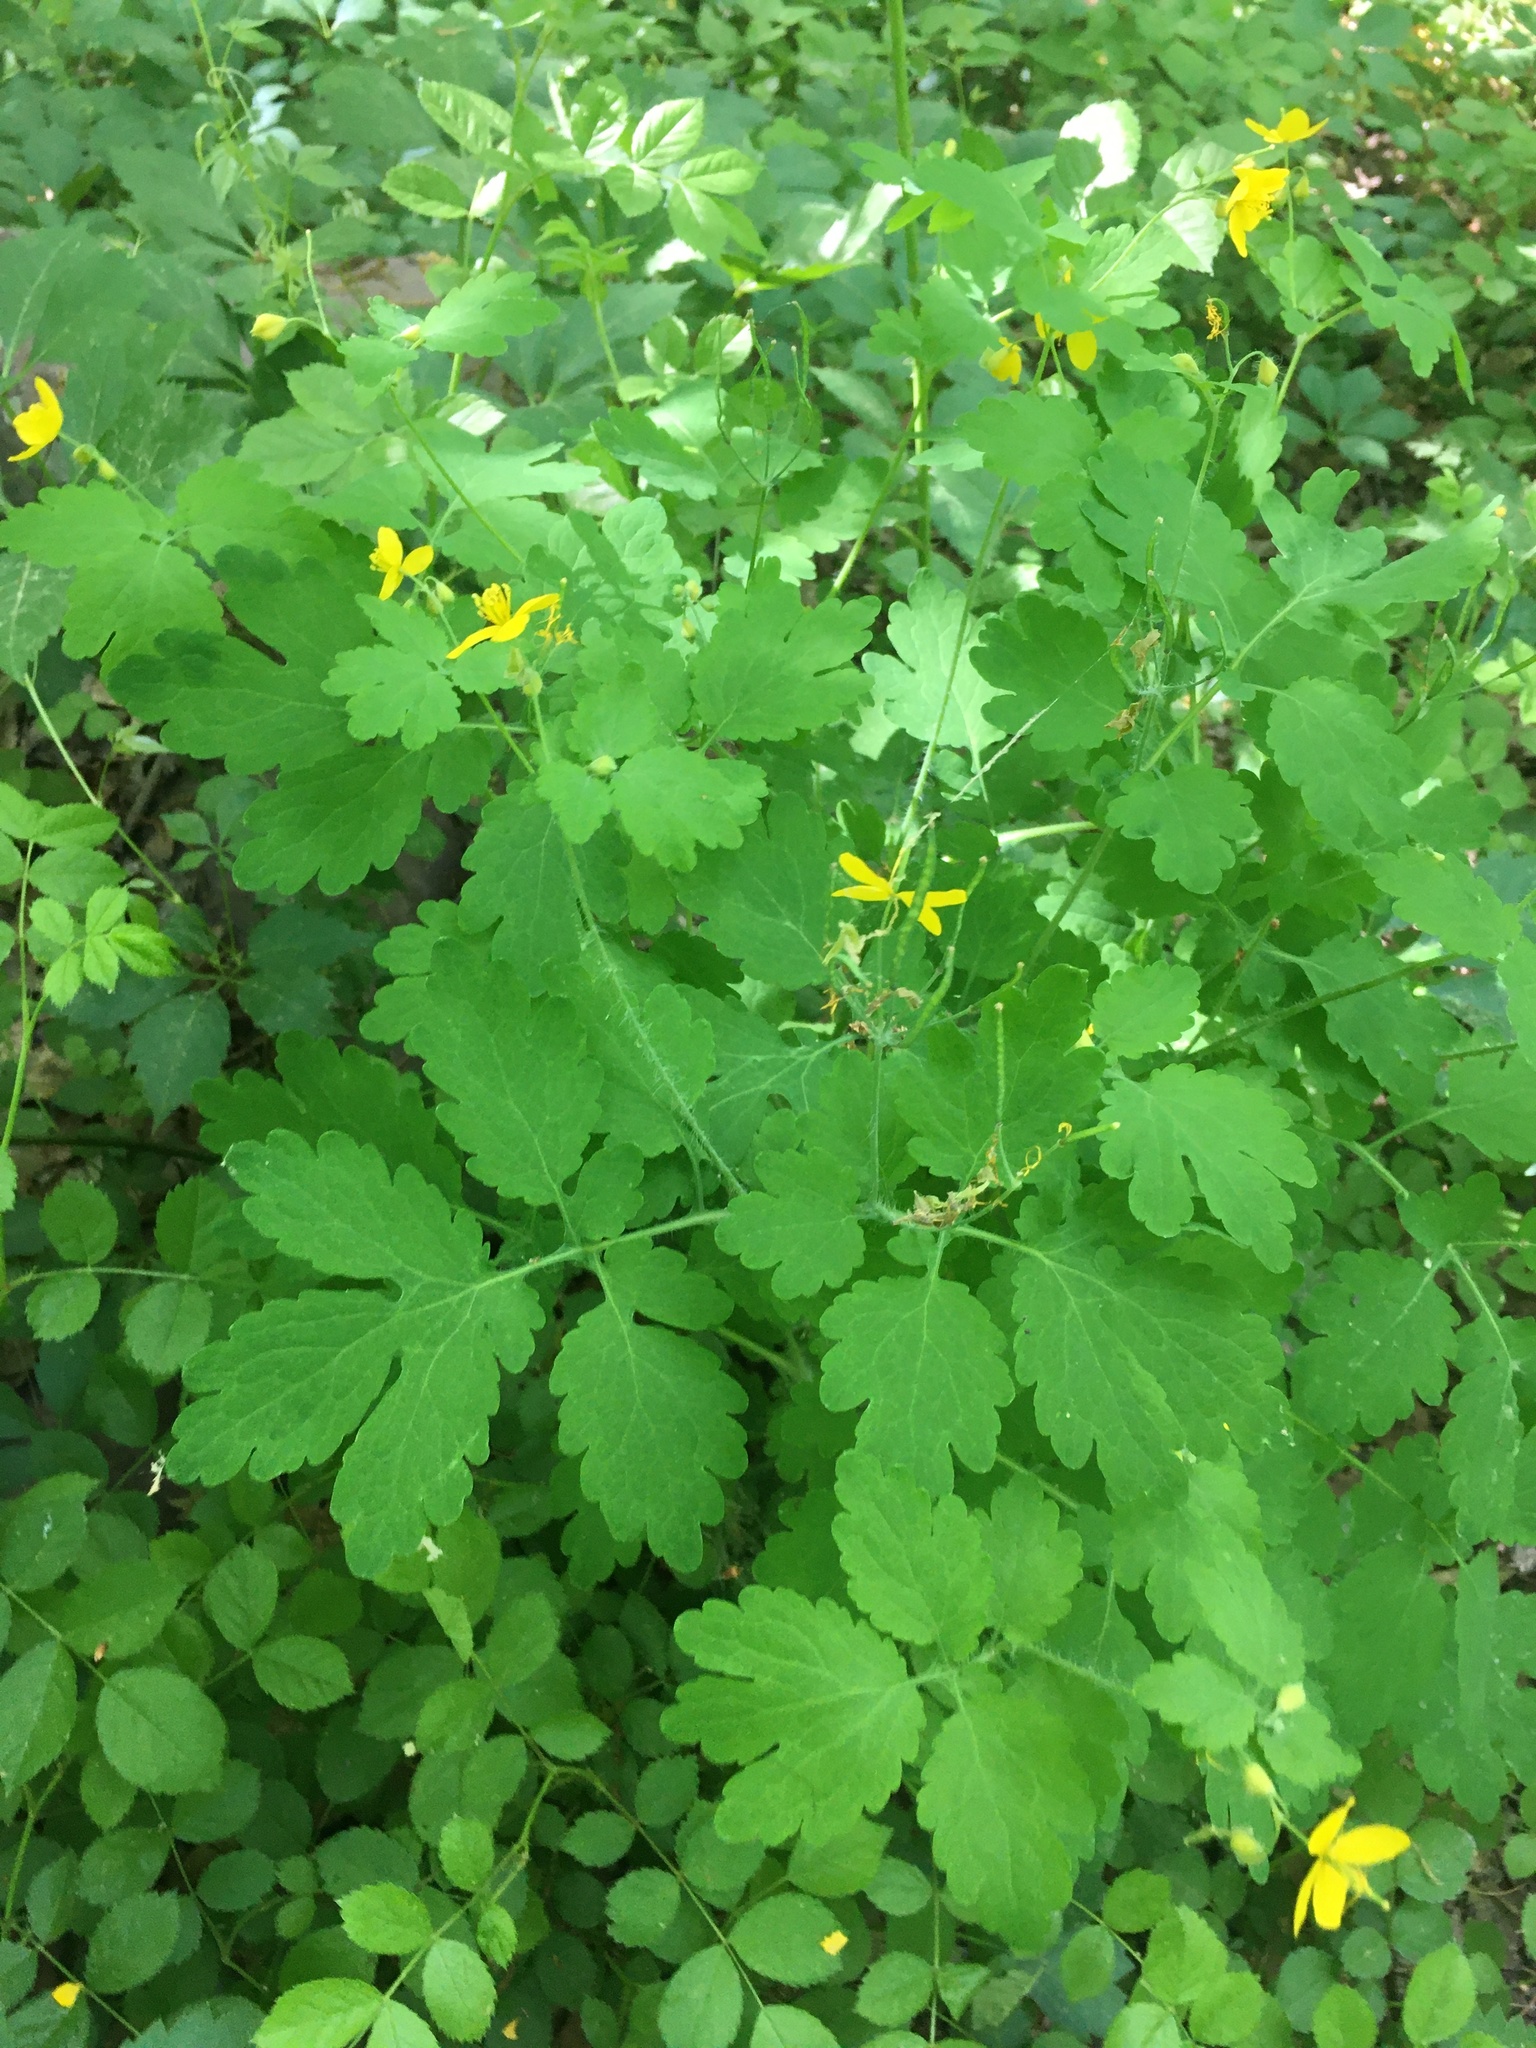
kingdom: Plantae
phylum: Tracheophyta
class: Magnoliopsida
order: Ranunculales
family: Papaveraceae
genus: Chelidonium
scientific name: Chelidonium majus
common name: Greater celandine
